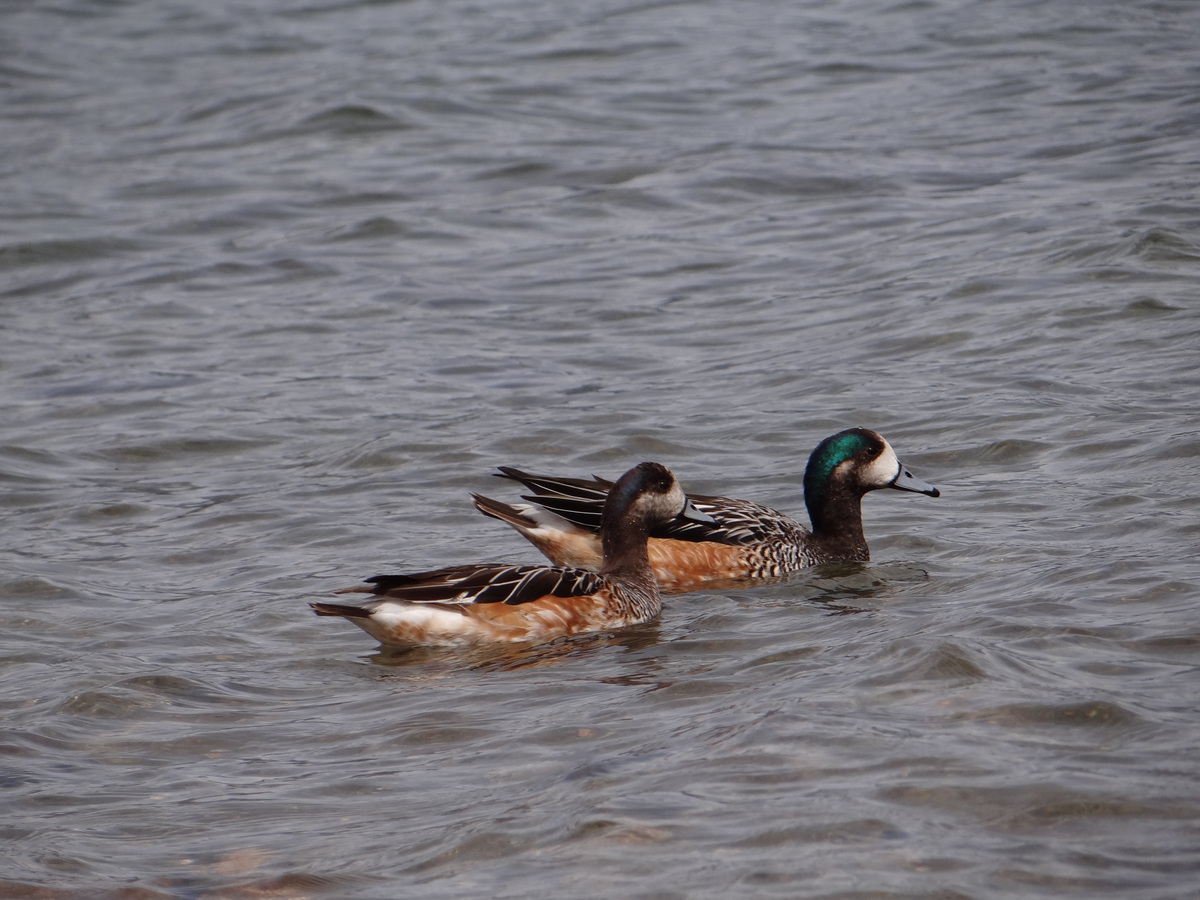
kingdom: Animalia
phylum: Chordata
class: Aves
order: Anseriformes
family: Anatidae
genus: Mareca
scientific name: Mareca sibilatrix
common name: Chiloe wigeon
